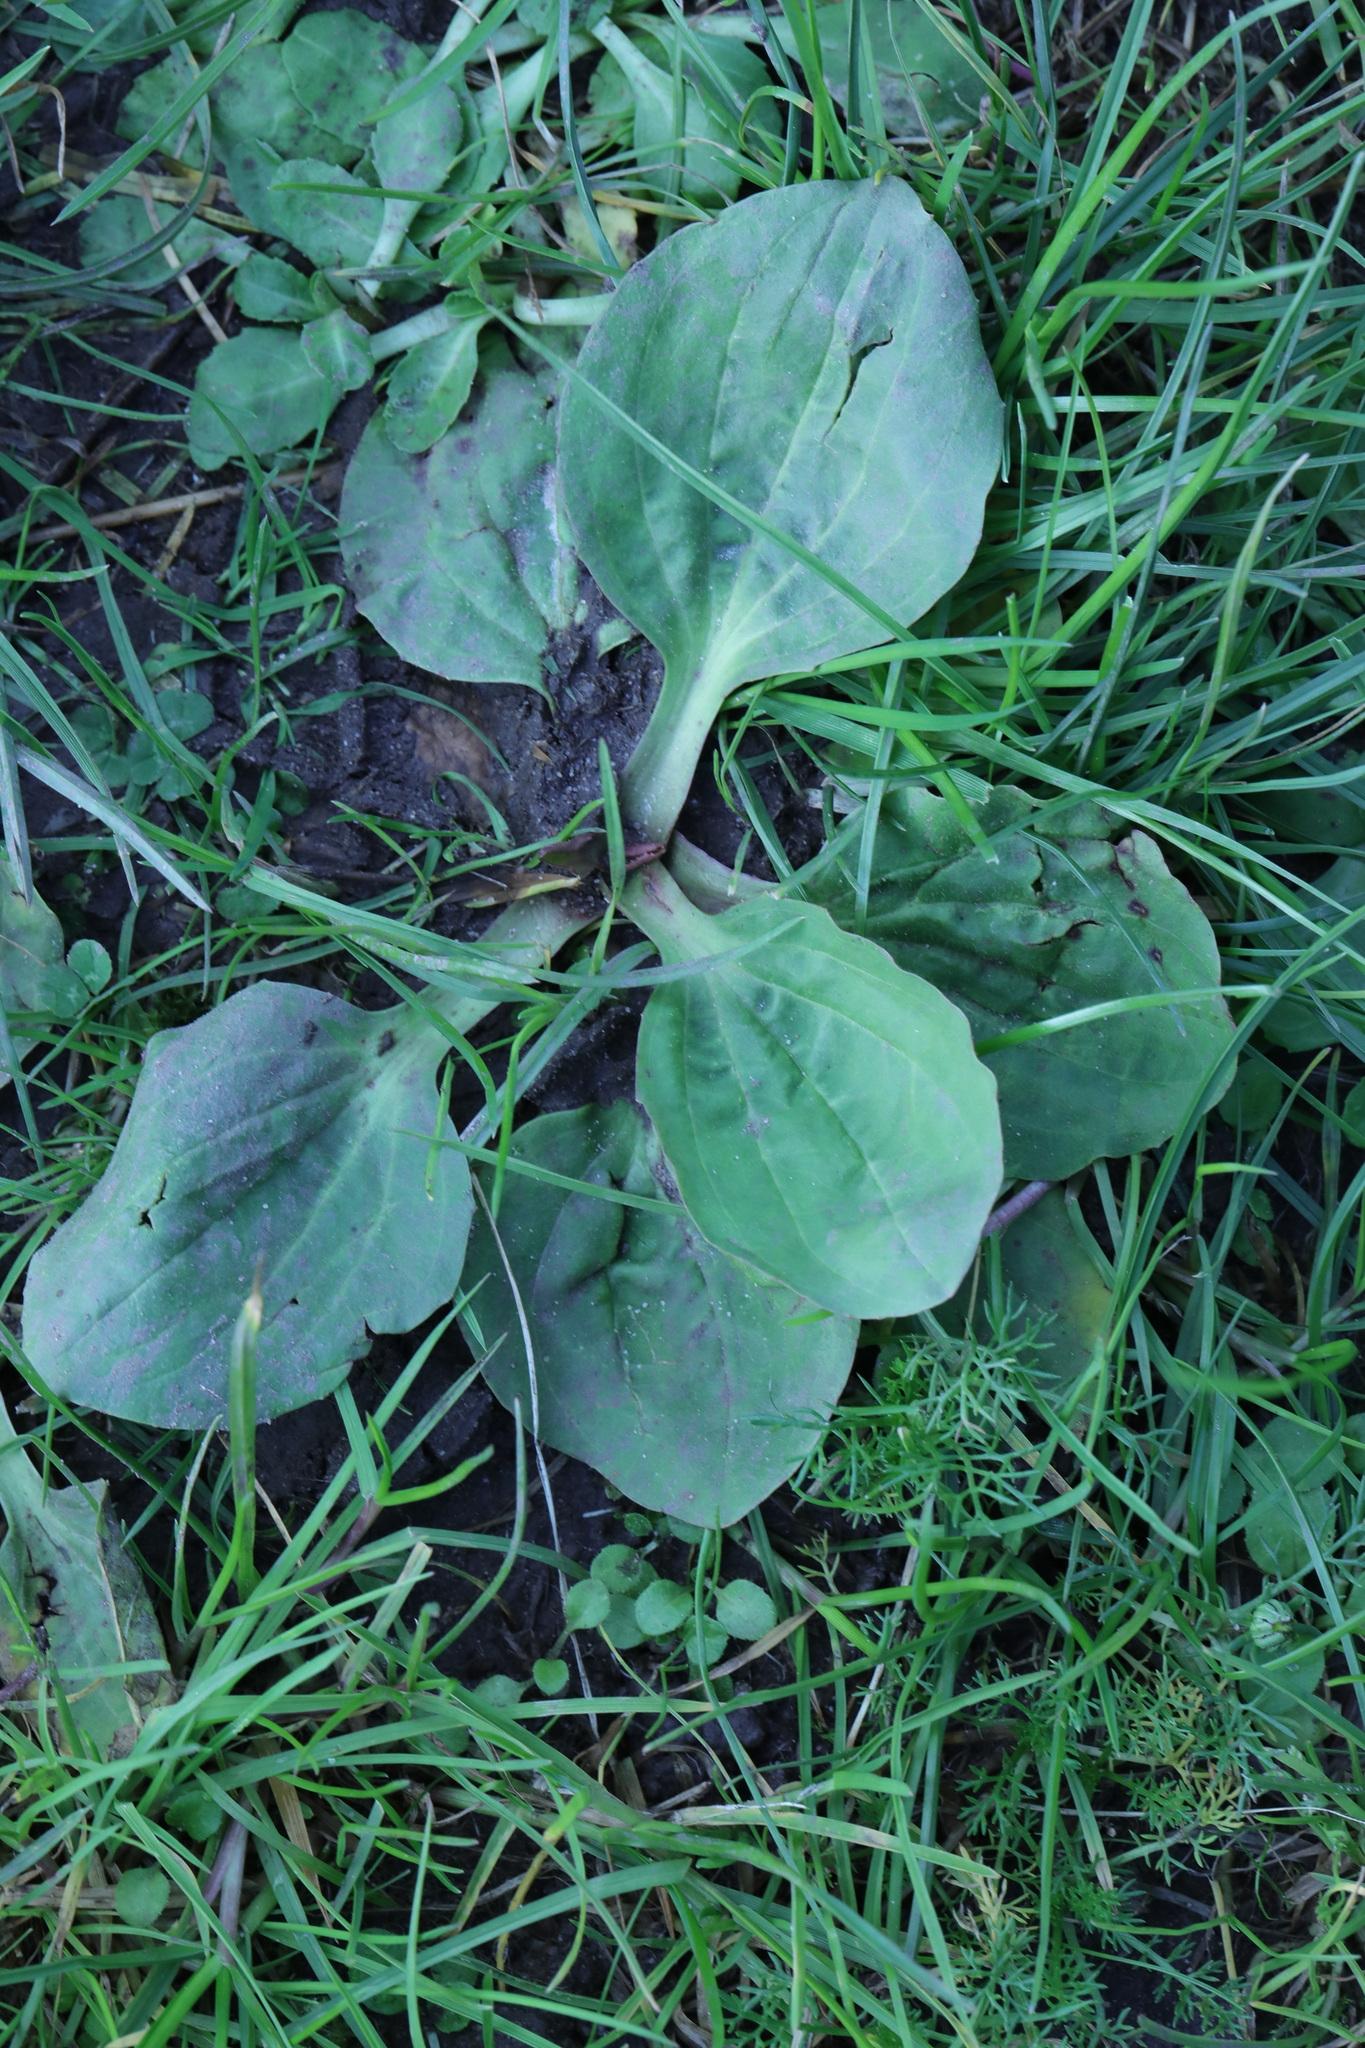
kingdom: Plantae
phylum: Tracheophyta
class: Magnoliopsida
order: Lamiales
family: Plantaginaceae
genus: Plantago
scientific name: Plantago major
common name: Common plantain
